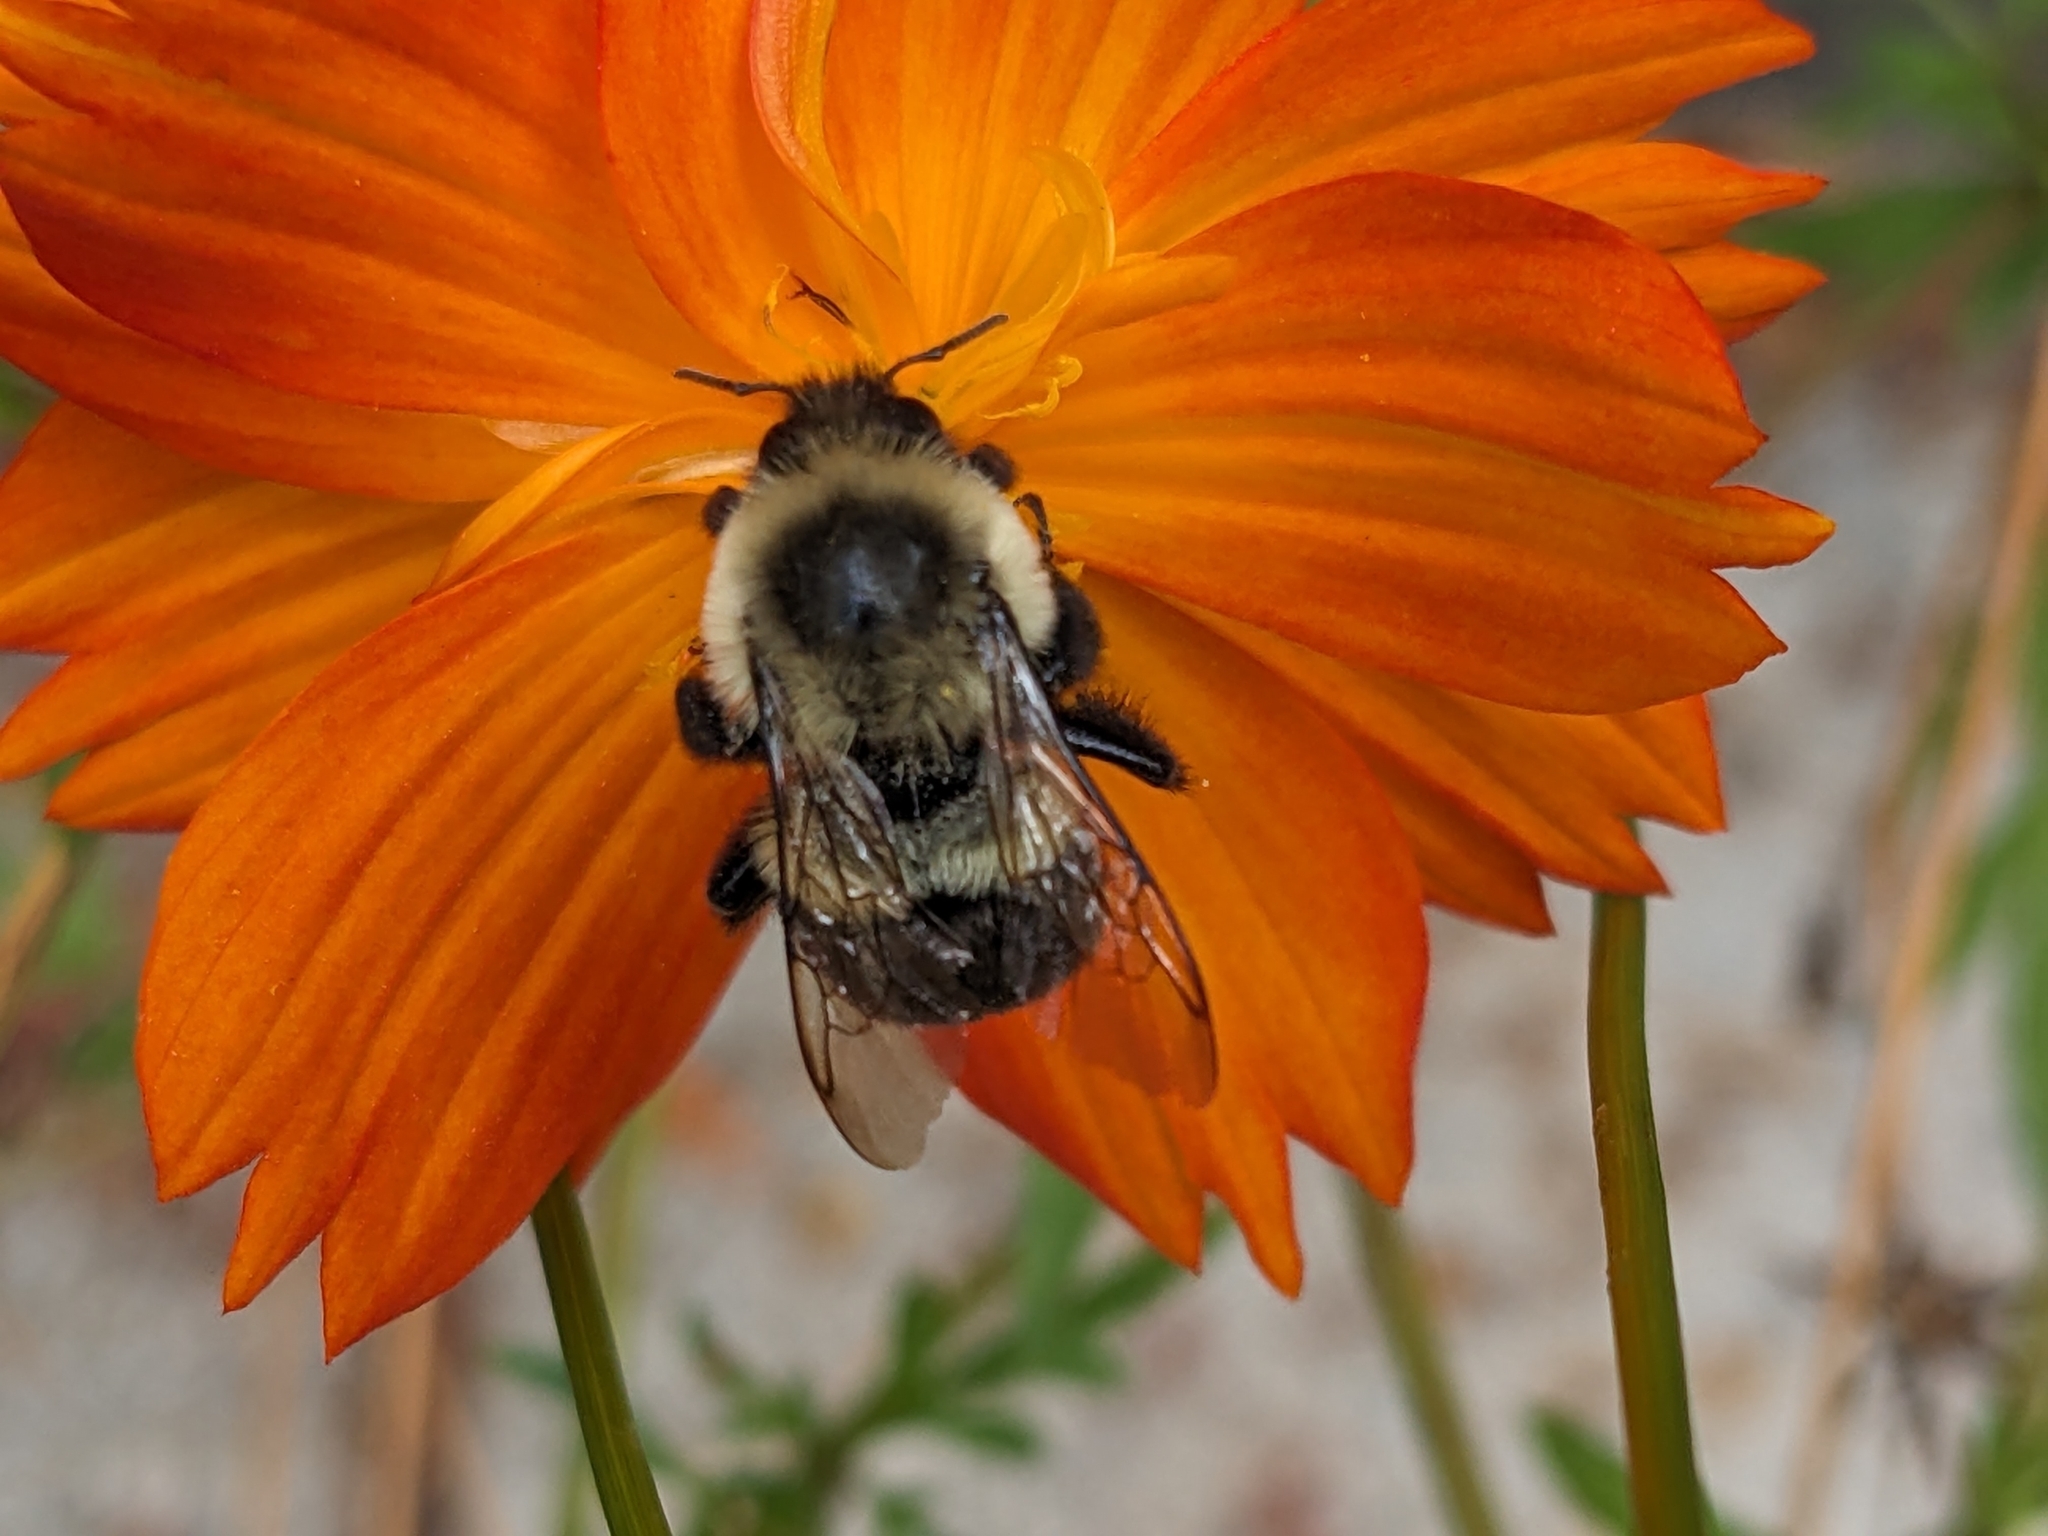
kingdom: Animalia
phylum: Arthropoda
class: Insecta
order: Hymenoptera
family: Apidae
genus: Bombus
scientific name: Bombus impatiens
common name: Common eastern bumble bee
